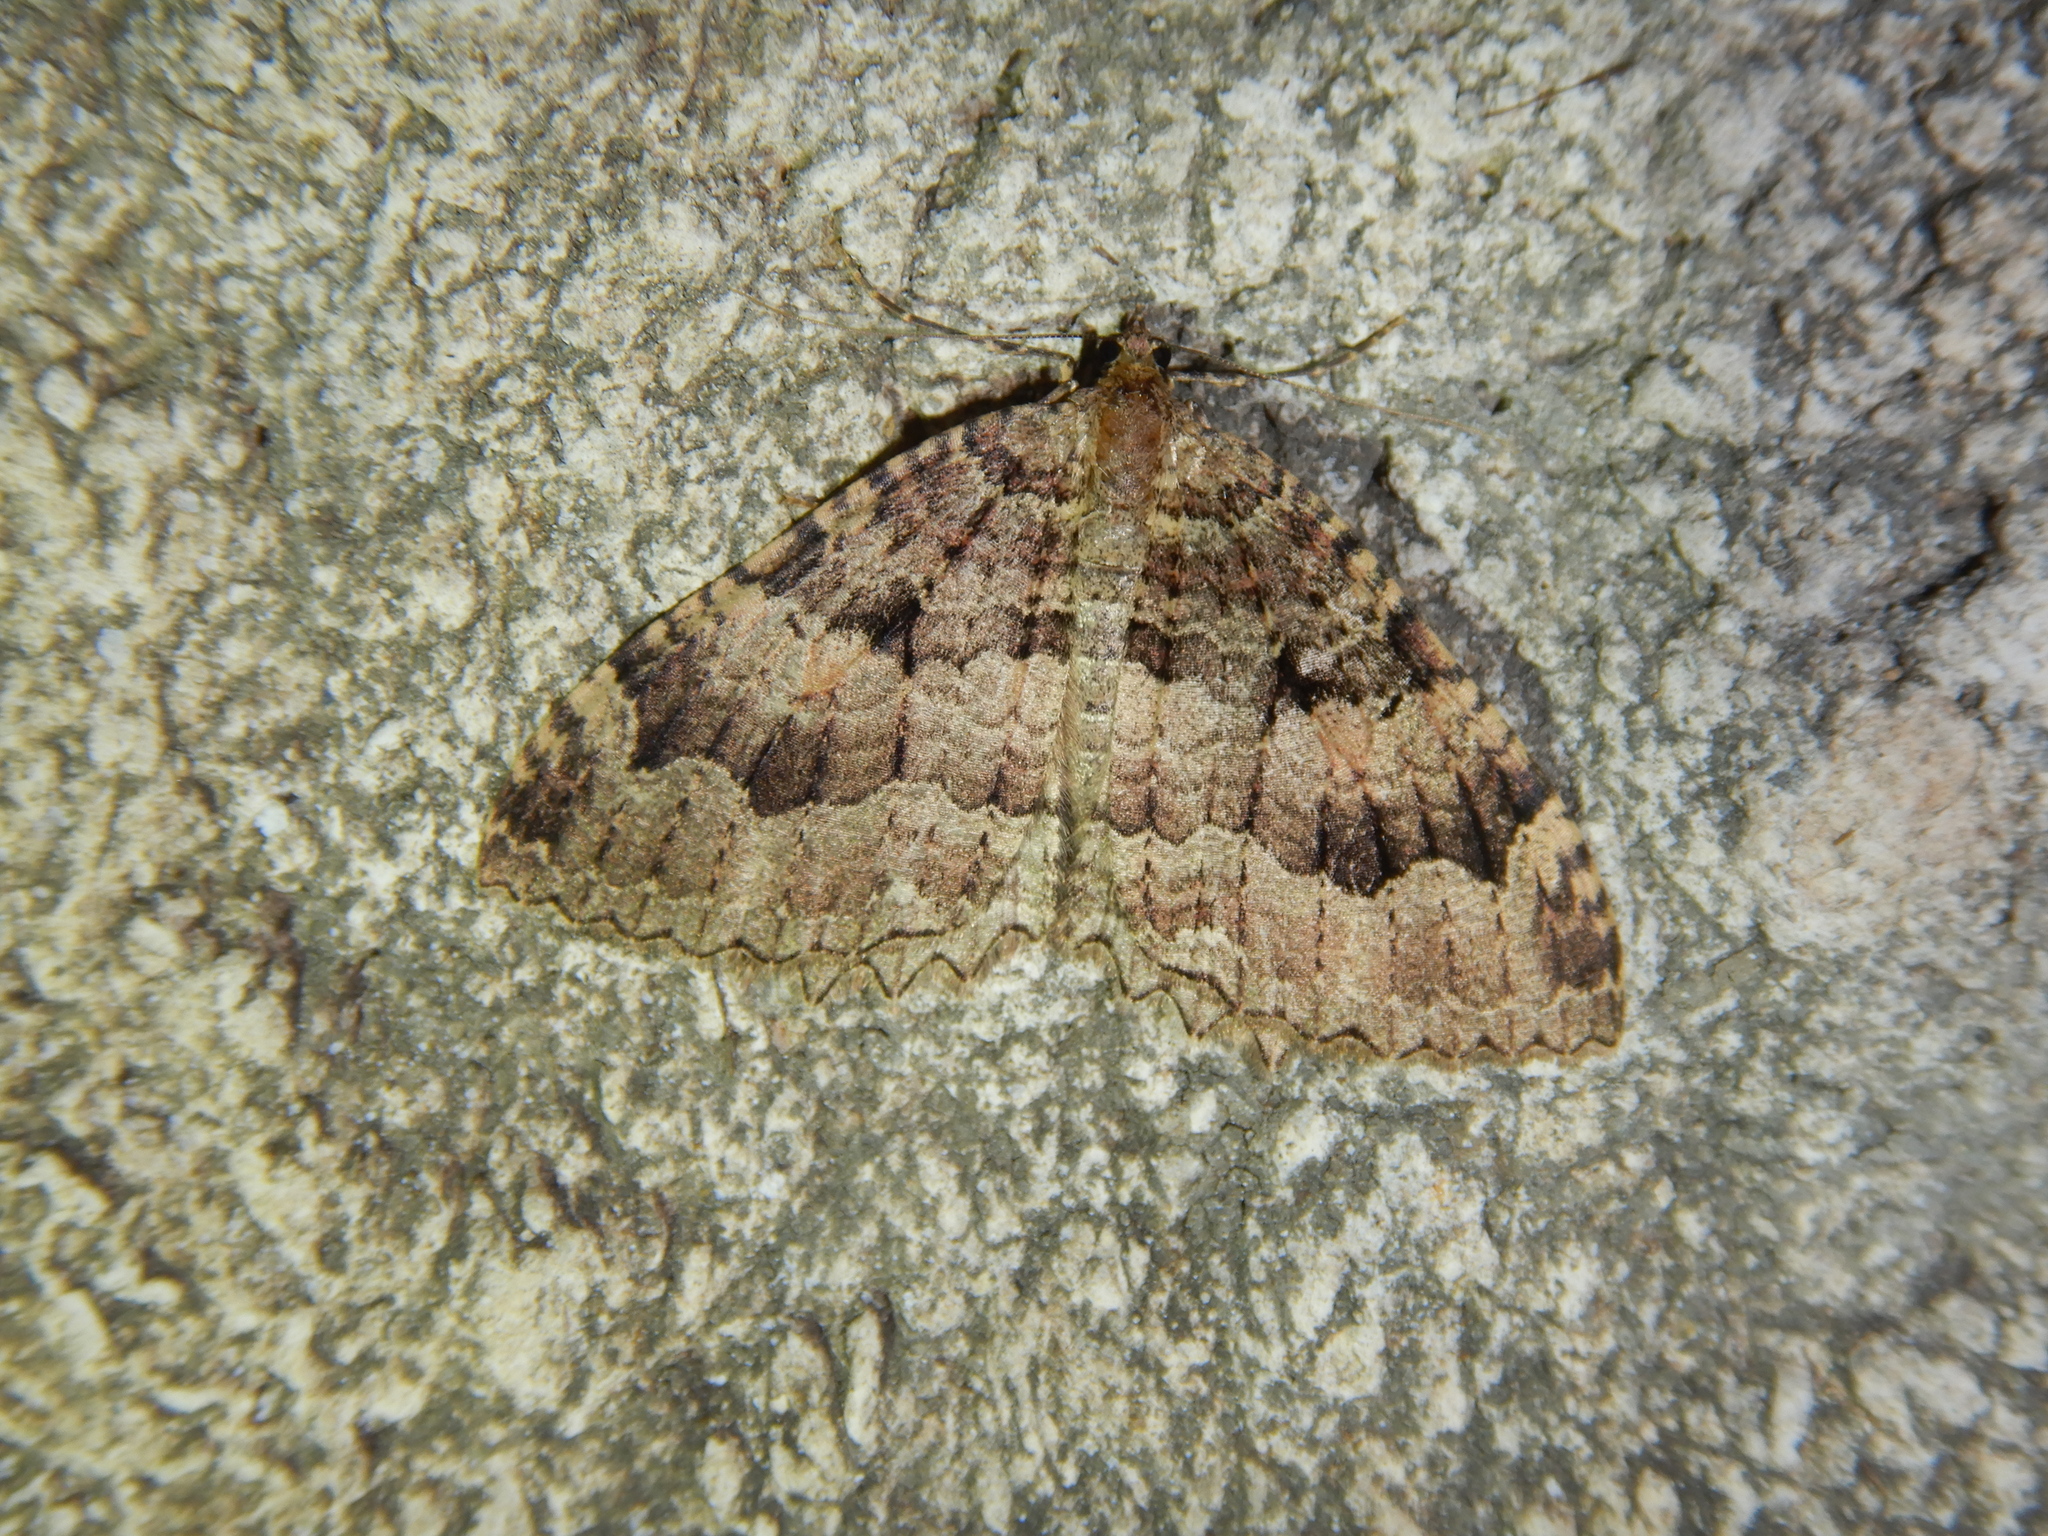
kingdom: Animalia
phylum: Arthropoda
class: Insecta
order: Lepidoptera
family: Geometridae
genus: Triphosa
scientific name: Triphosa dubitata
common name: Tissue
